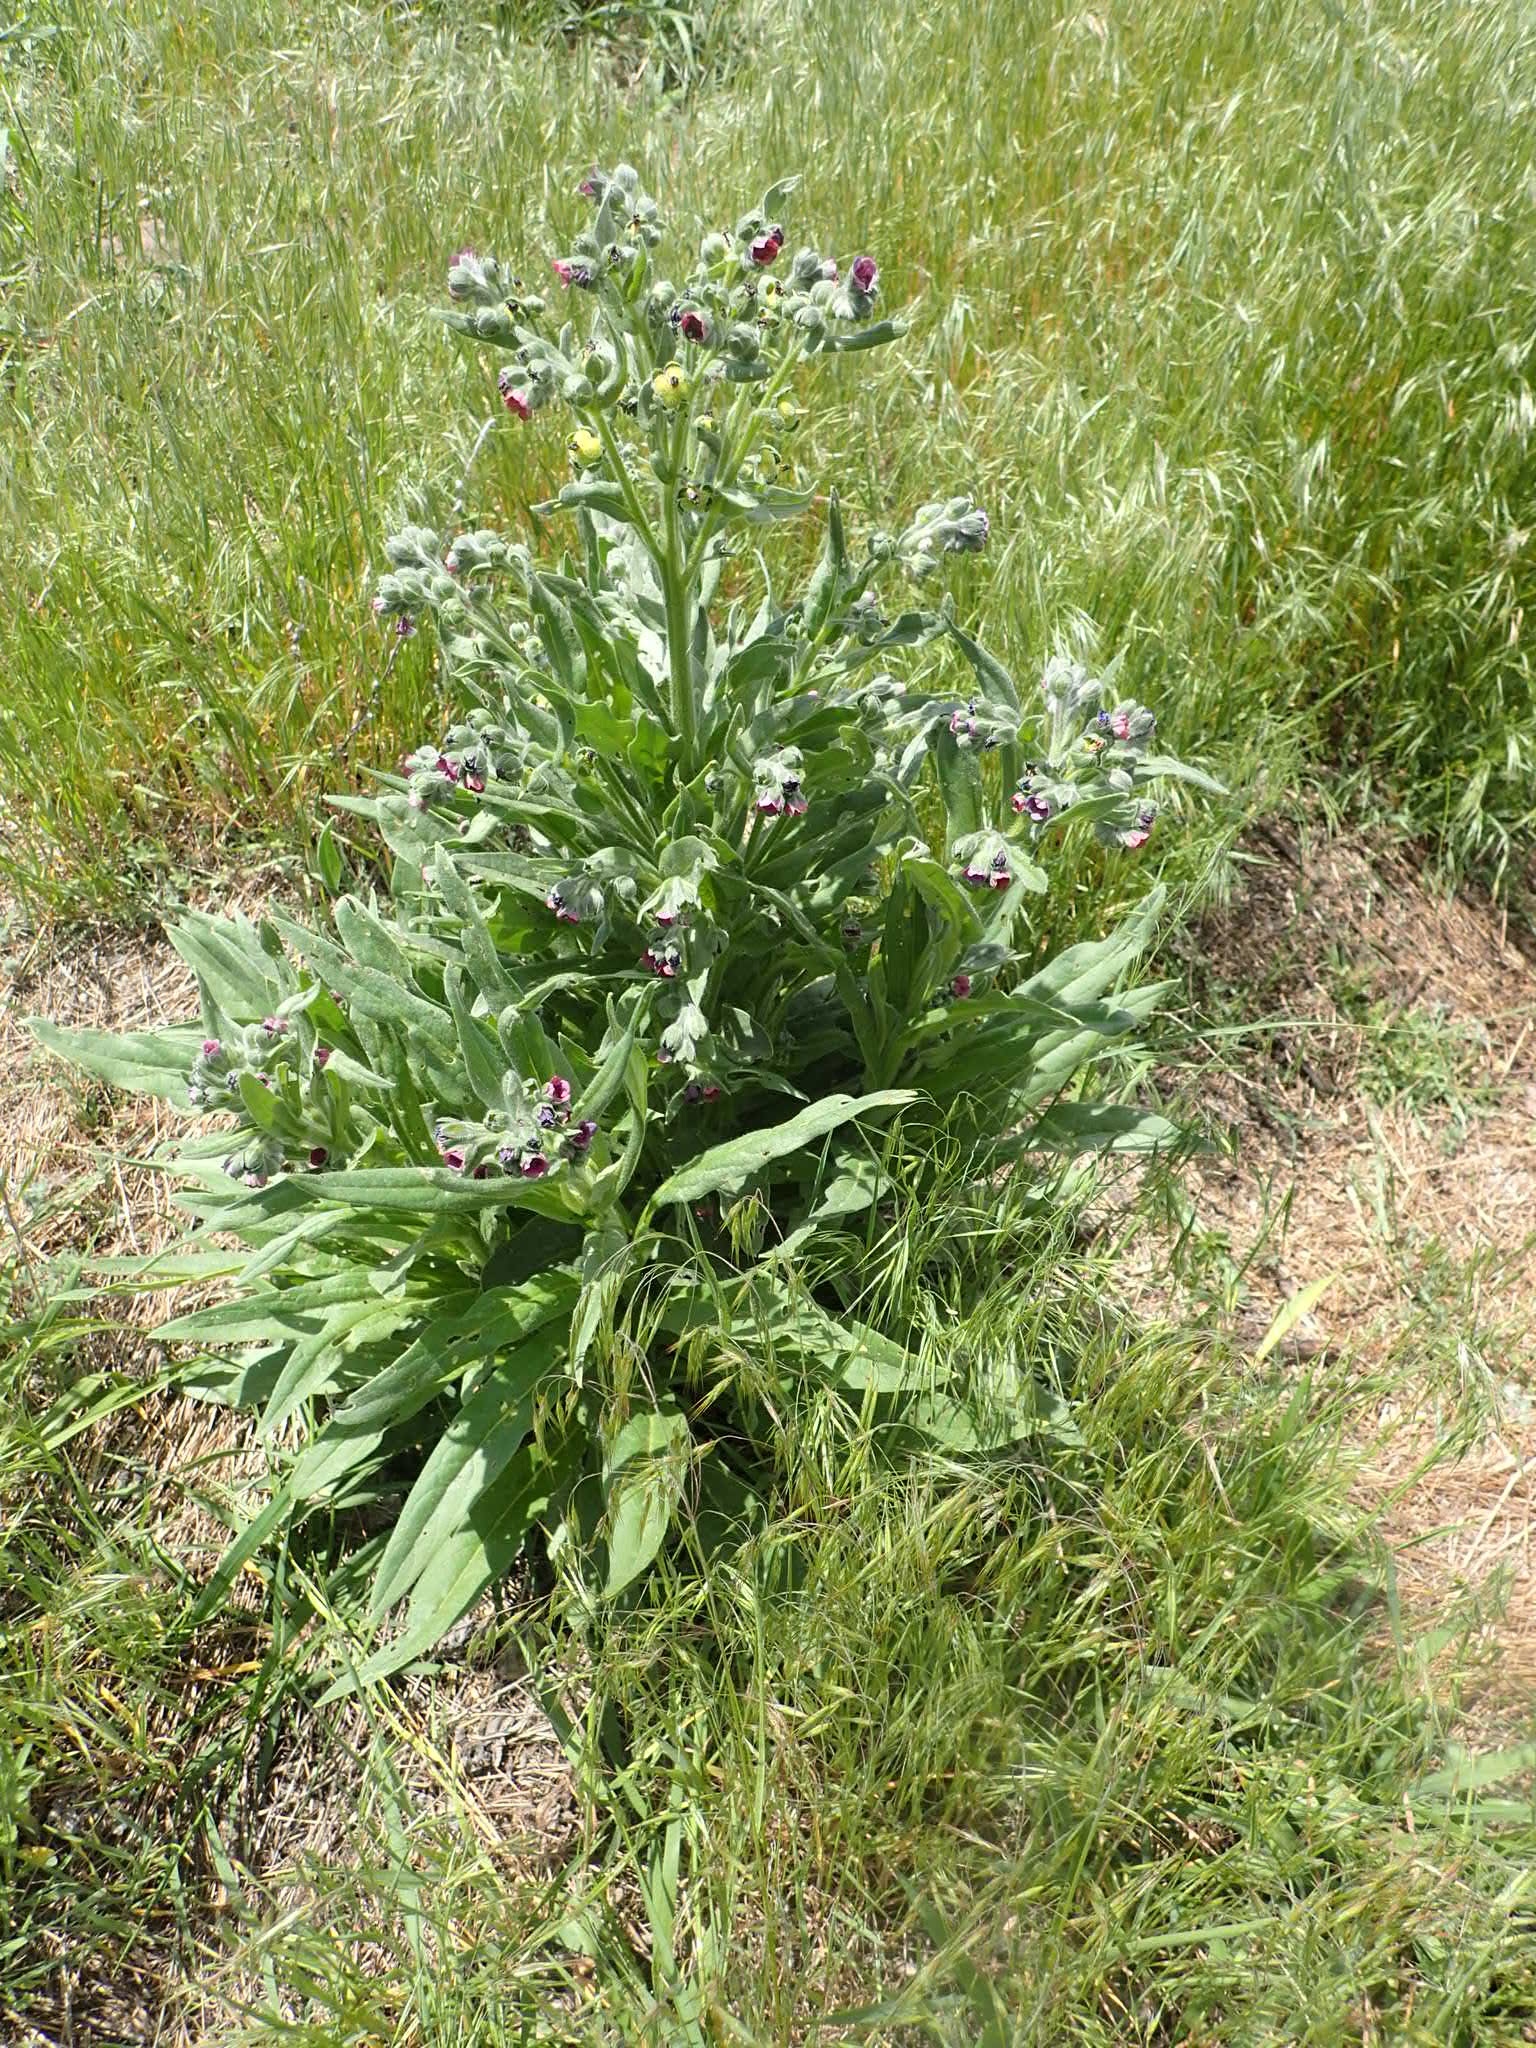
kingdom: Plantae
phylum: Tracheophyta
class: Magnoliopsida
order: Boraginales
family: Boraginaceae
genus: Cynoglossum
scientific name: Cynoglossum officinale
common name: Hound's-tongue
